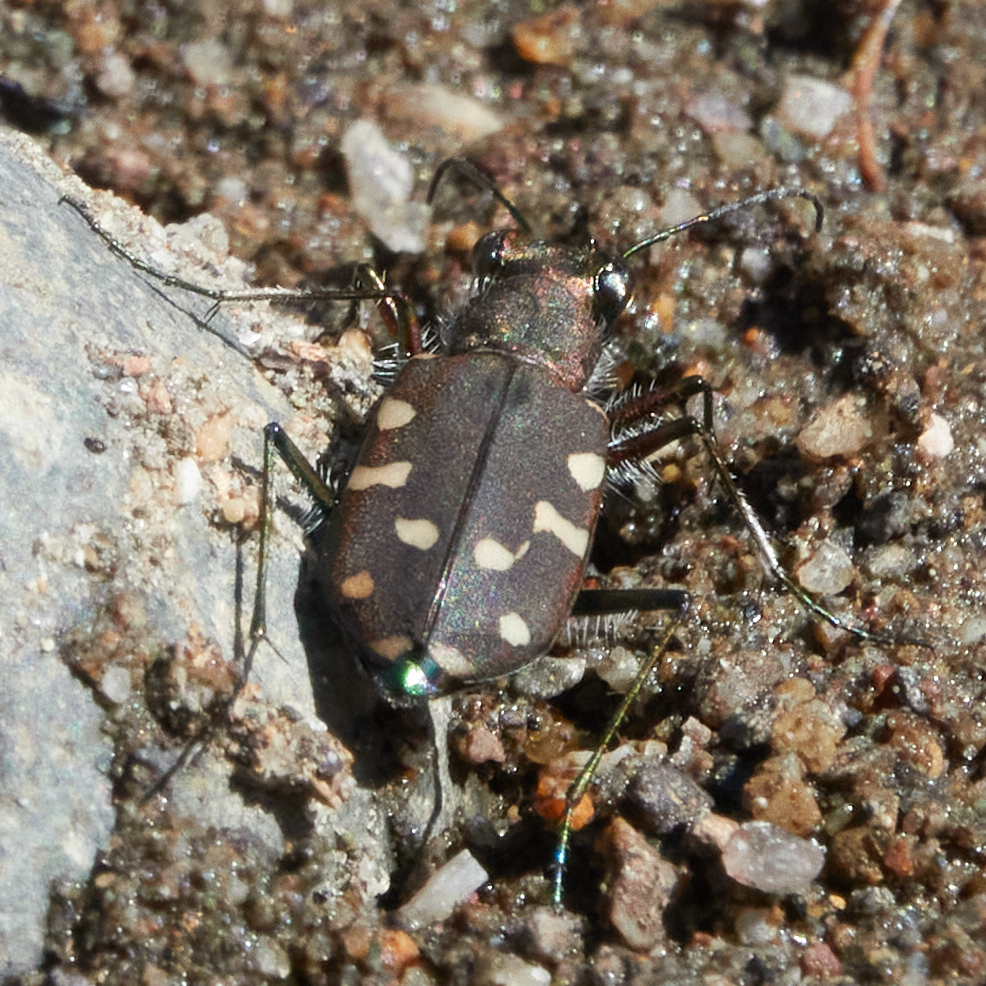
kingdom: Animalia
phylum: Arthropoda
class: Insecta
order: Coleoptera
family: Carabidae
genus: Cicindela
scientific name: Cicindela oregona
